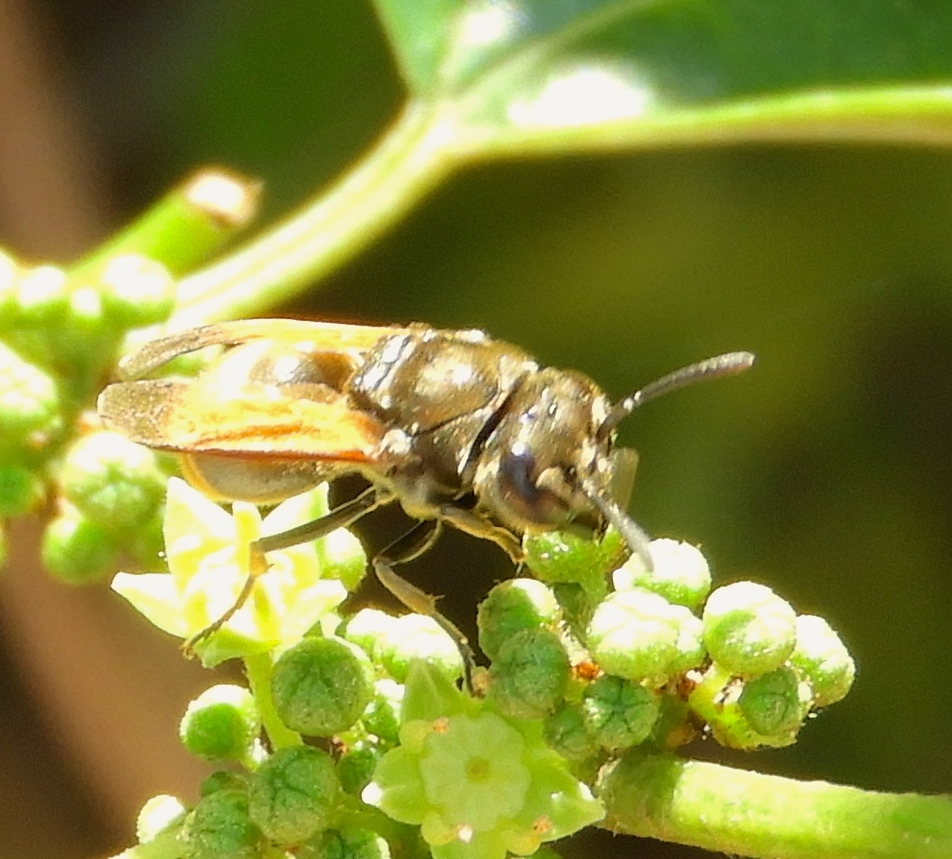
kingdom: Animalia
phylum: Arthropoda
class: Insecta
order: Hymenoptera
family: Vespidae
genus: Brachygastra
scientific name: Brachygastra mellifica
